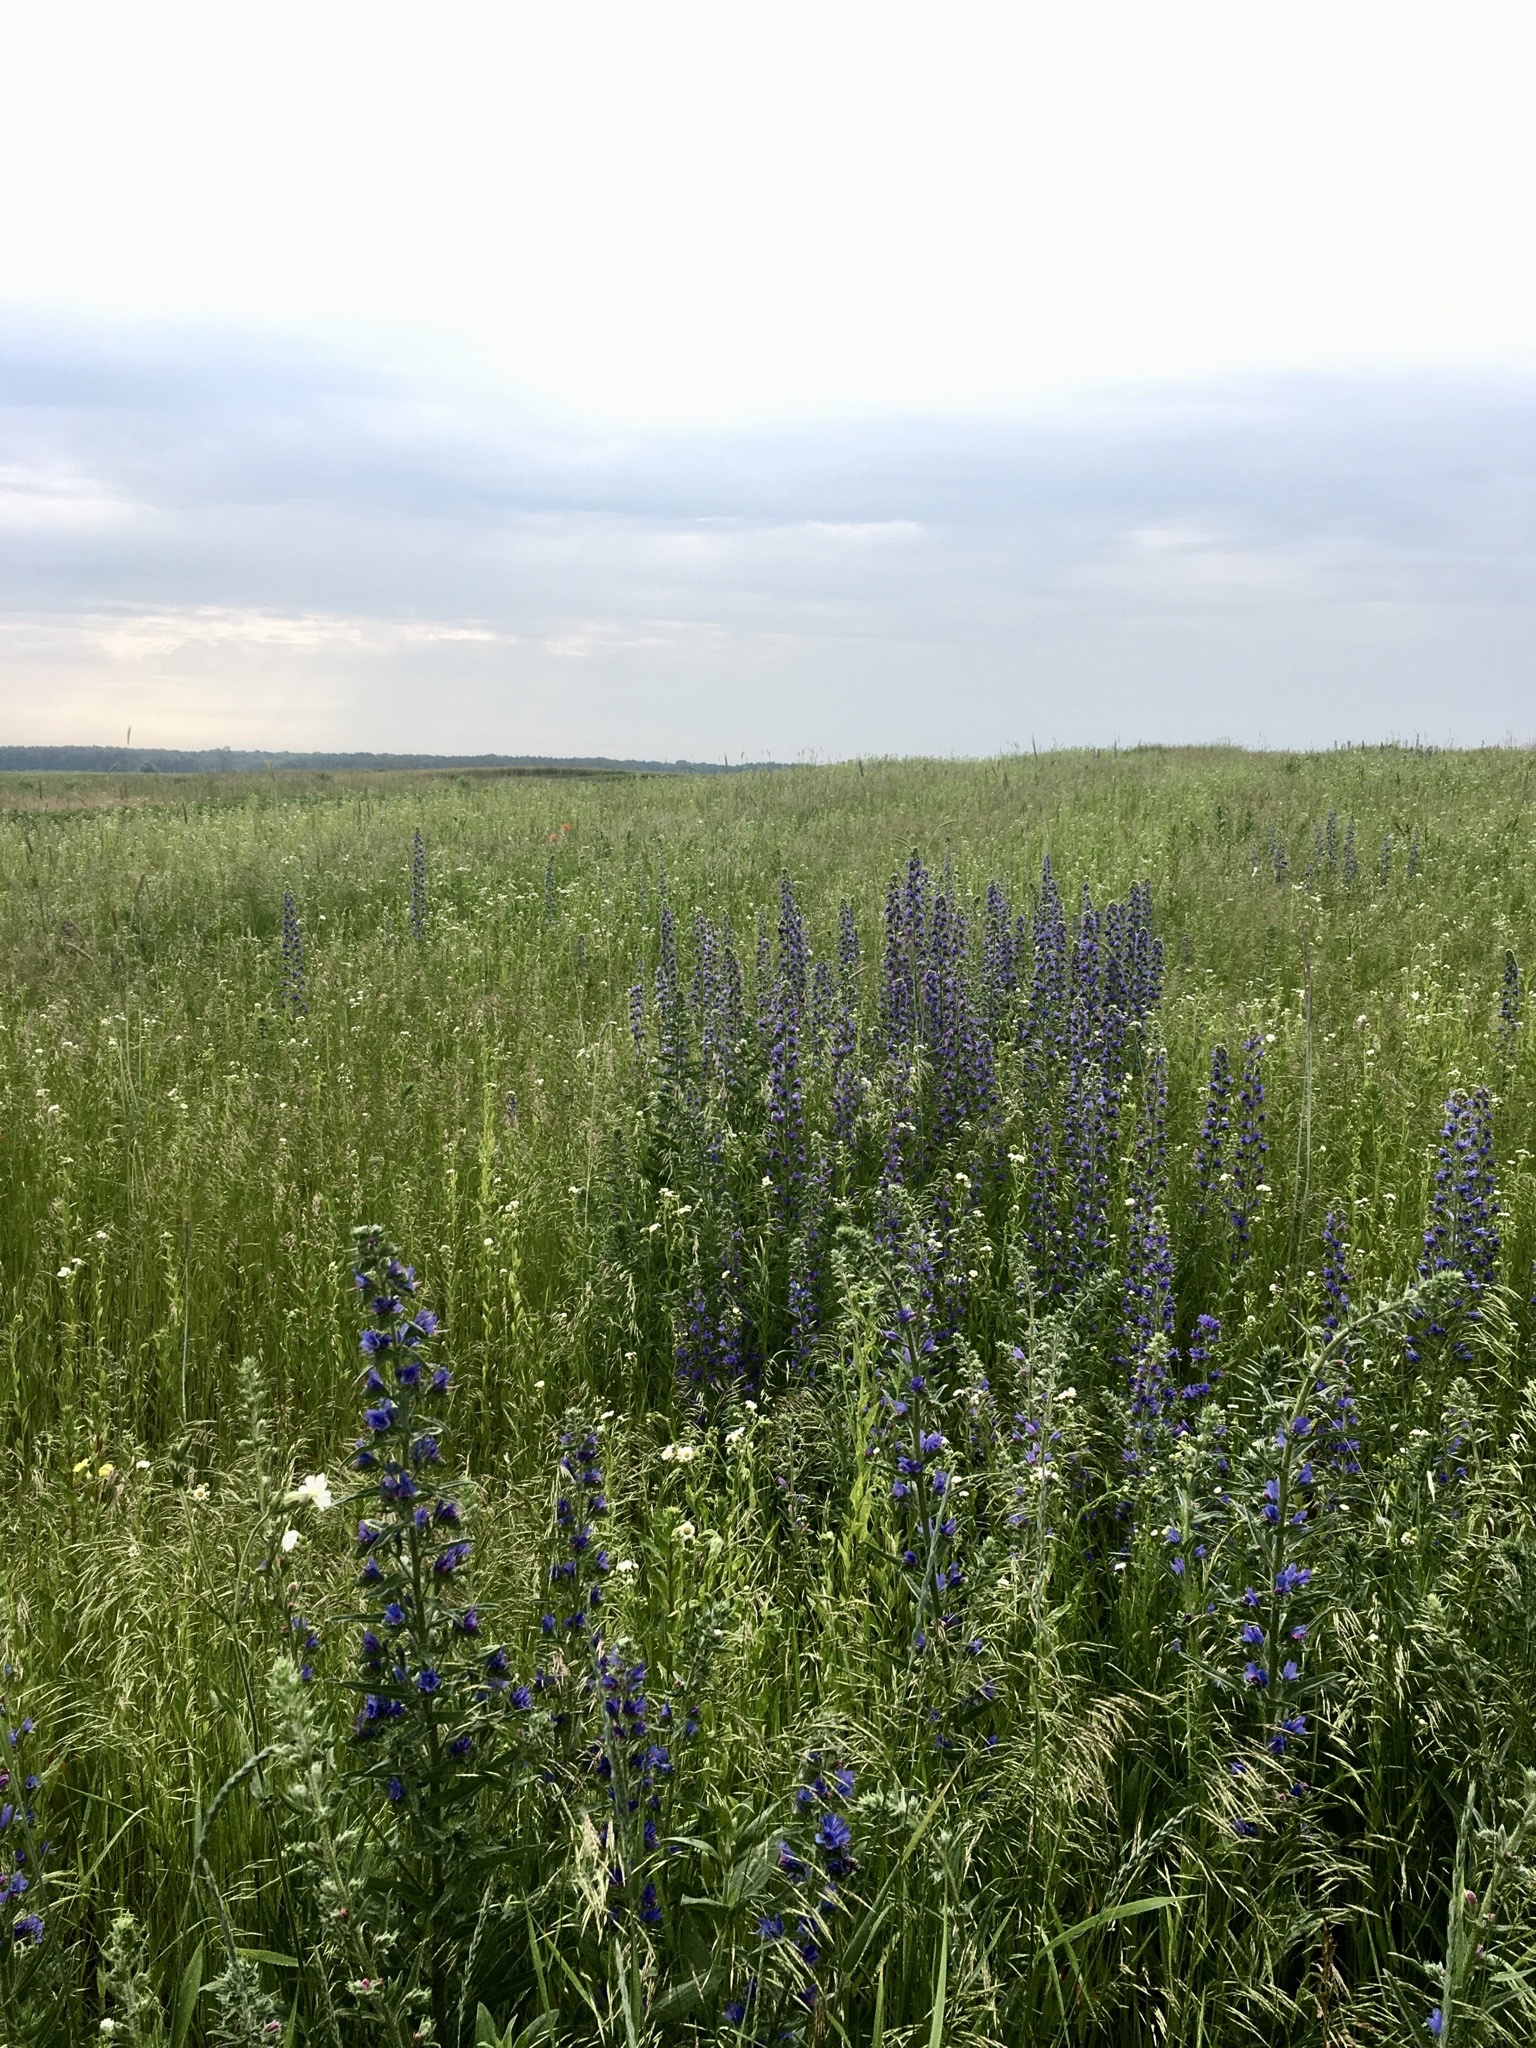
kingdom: Plantae
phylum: Tracheophyta
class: Magnoliopsida
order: Boraginales
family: Boraginaceae
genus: Echium
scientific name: Echium vulgare
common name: Common viper's bugloss
